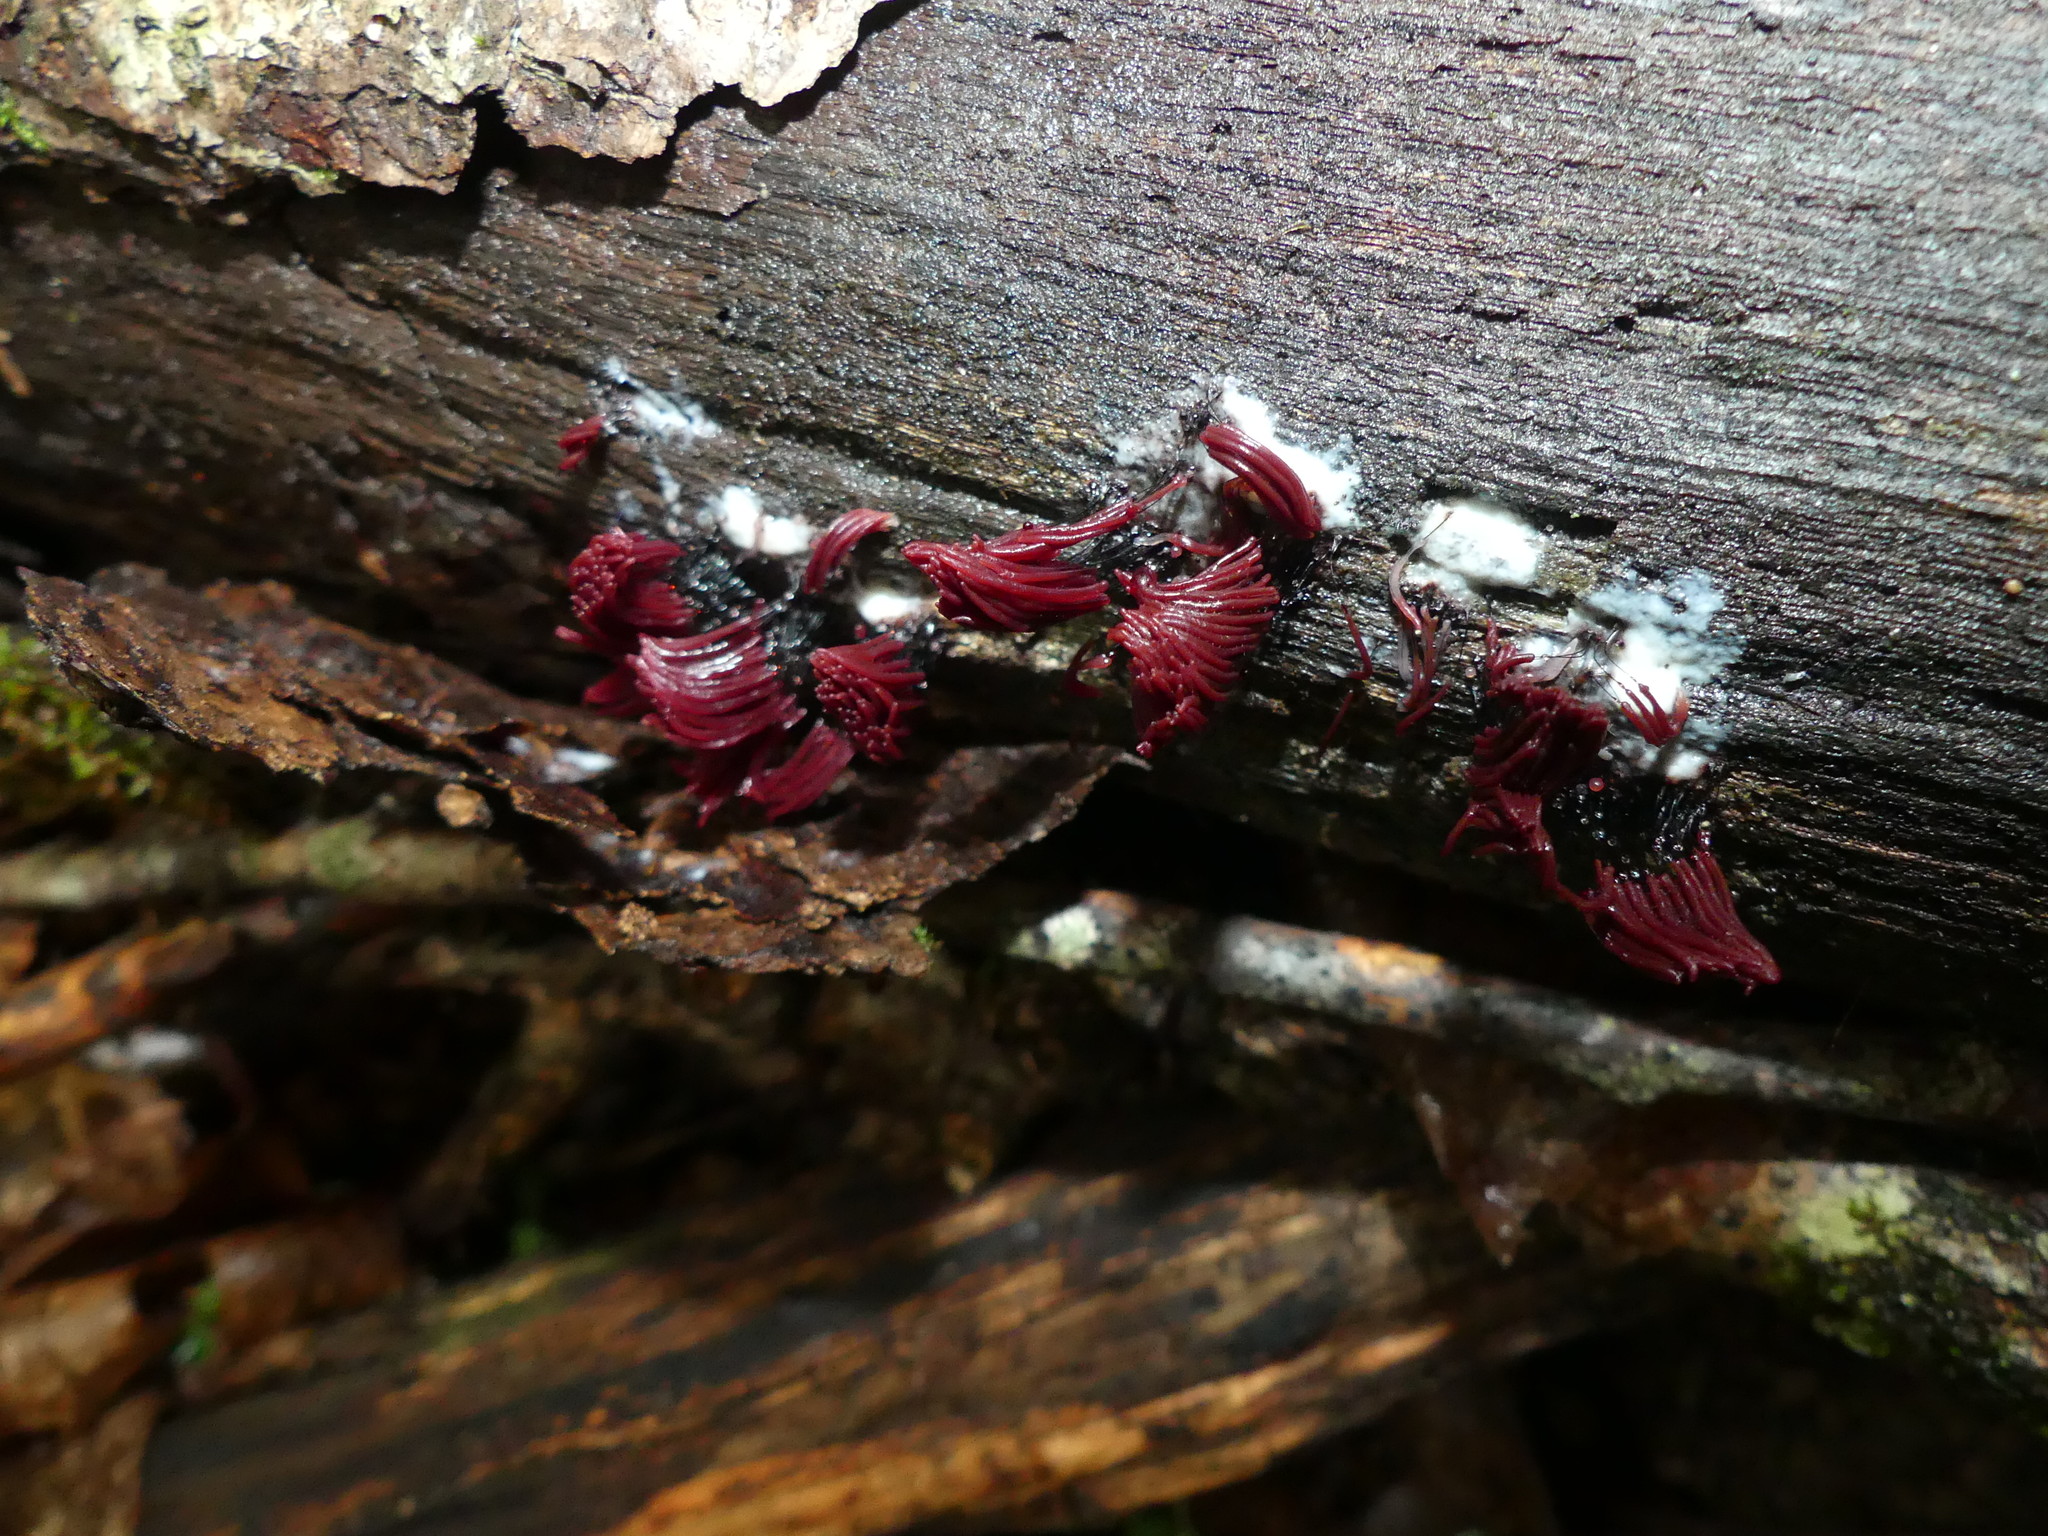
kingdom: Protozoa
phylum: Mycetozoa
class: Myxomycetes
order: Stemonitidales
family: Stemonitidaceae
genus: Stemonitis
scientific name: Stemonitis splendens
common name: Chocolate tube slime
